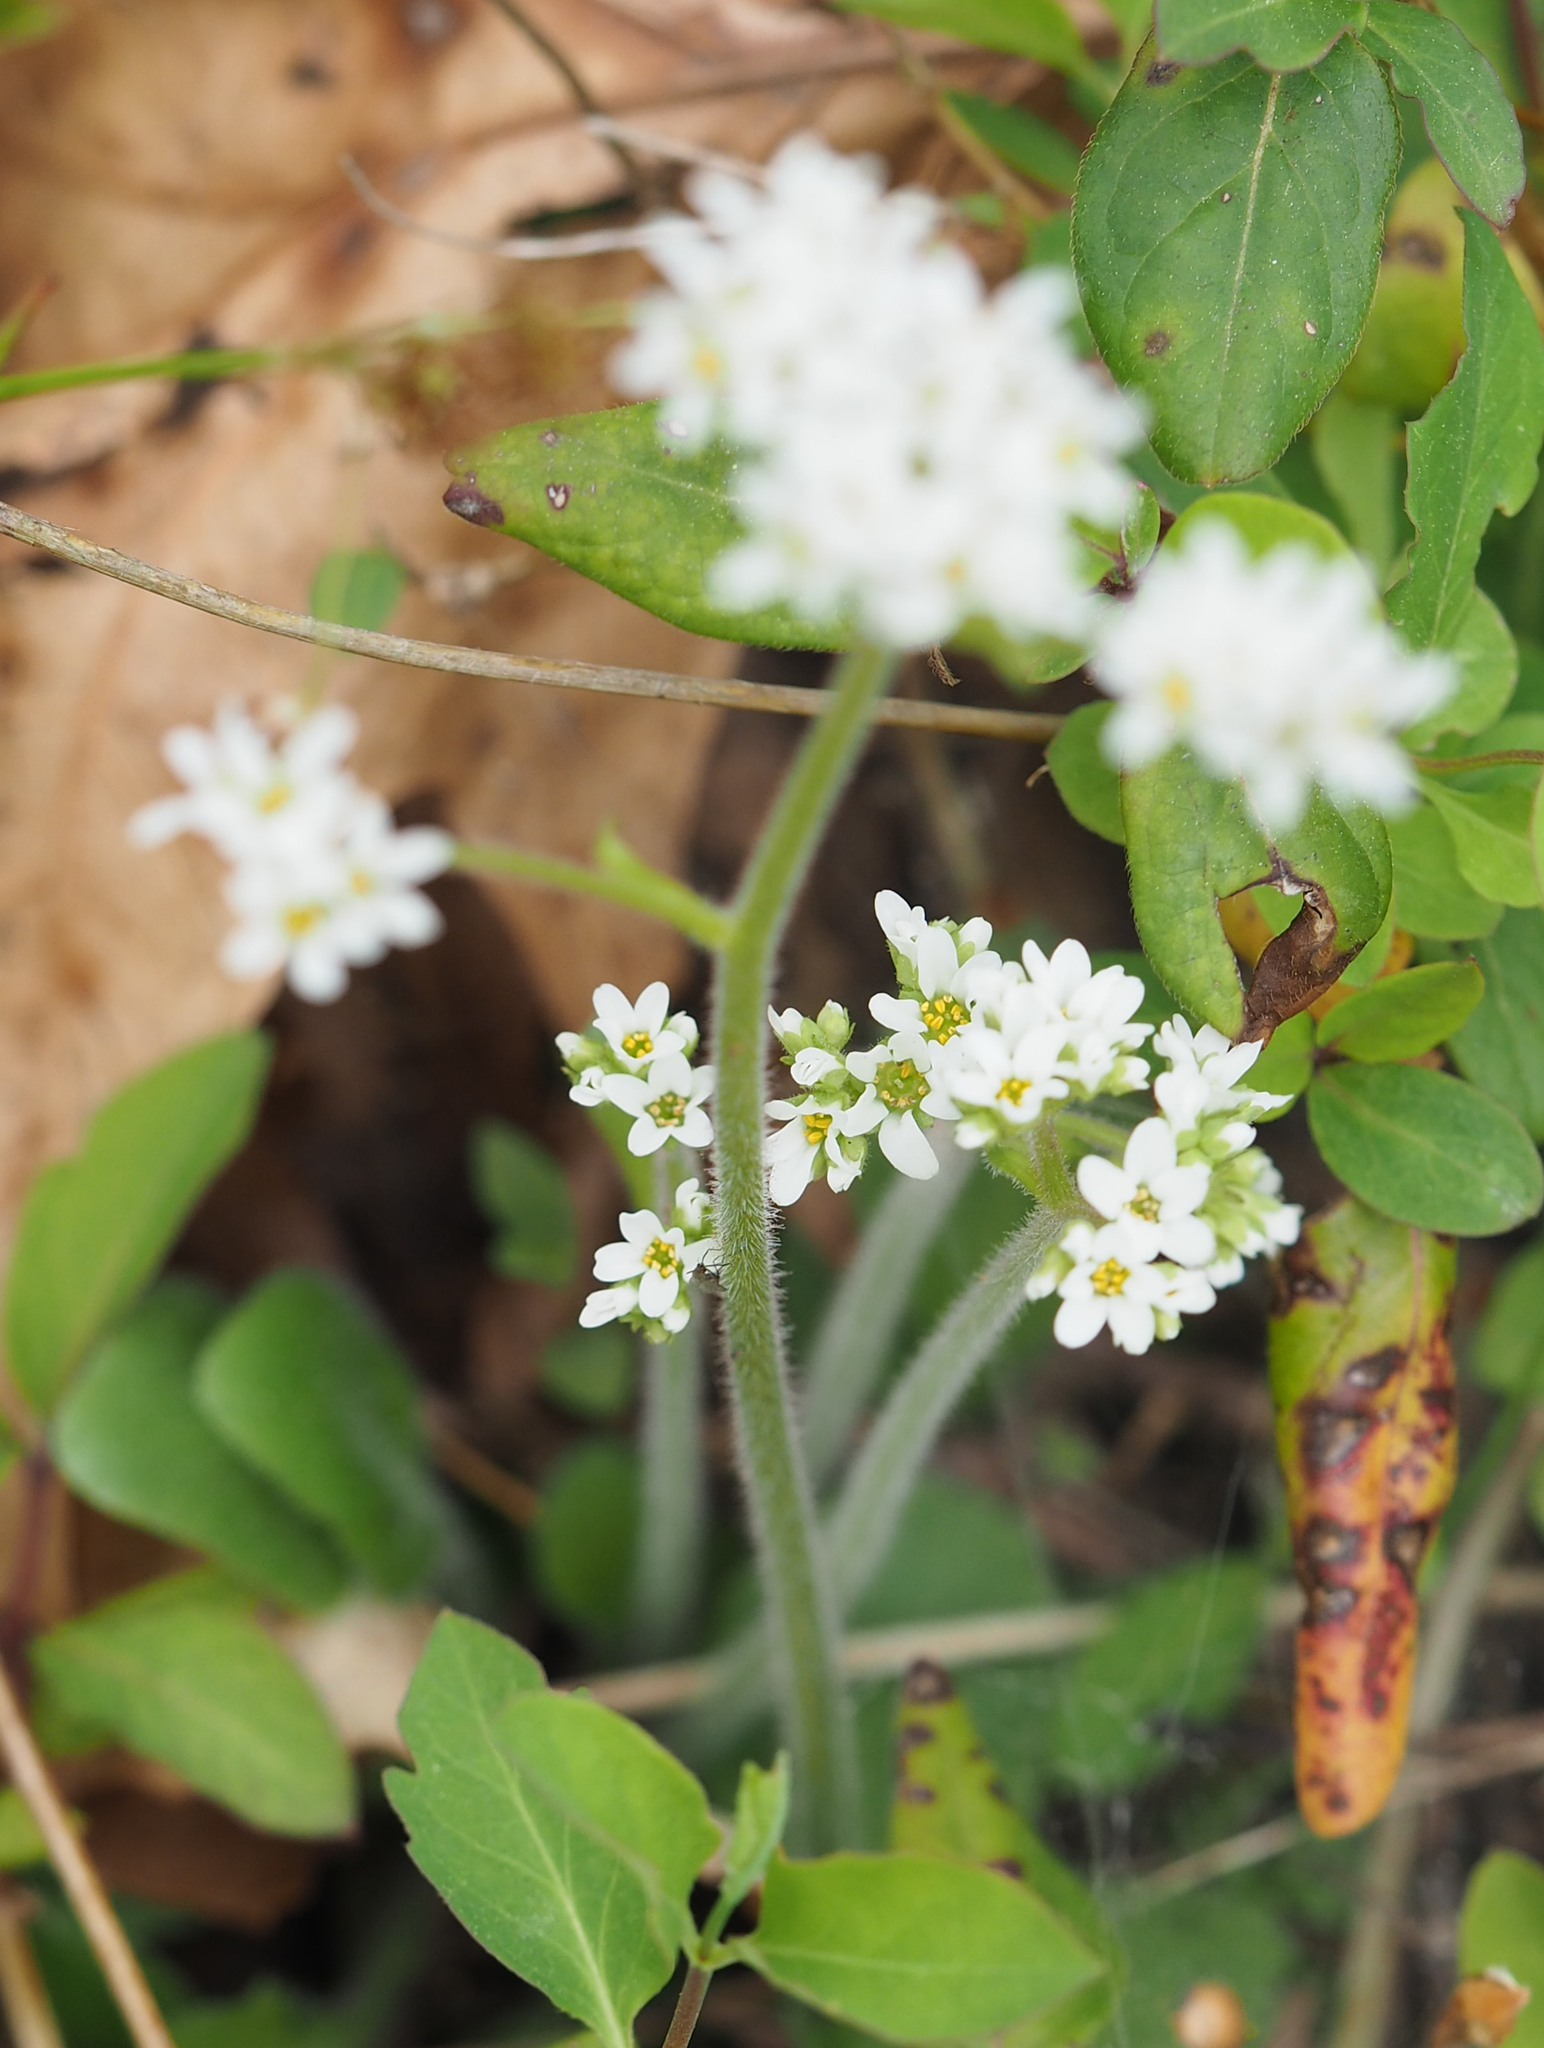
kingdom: Plantae
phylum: Tracheophyta
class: Magnoliopsida
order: Saxifragales
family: Saxifragaceae
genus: Micranthes
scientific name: Micranthes virginiensis
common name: Early saxifrage
